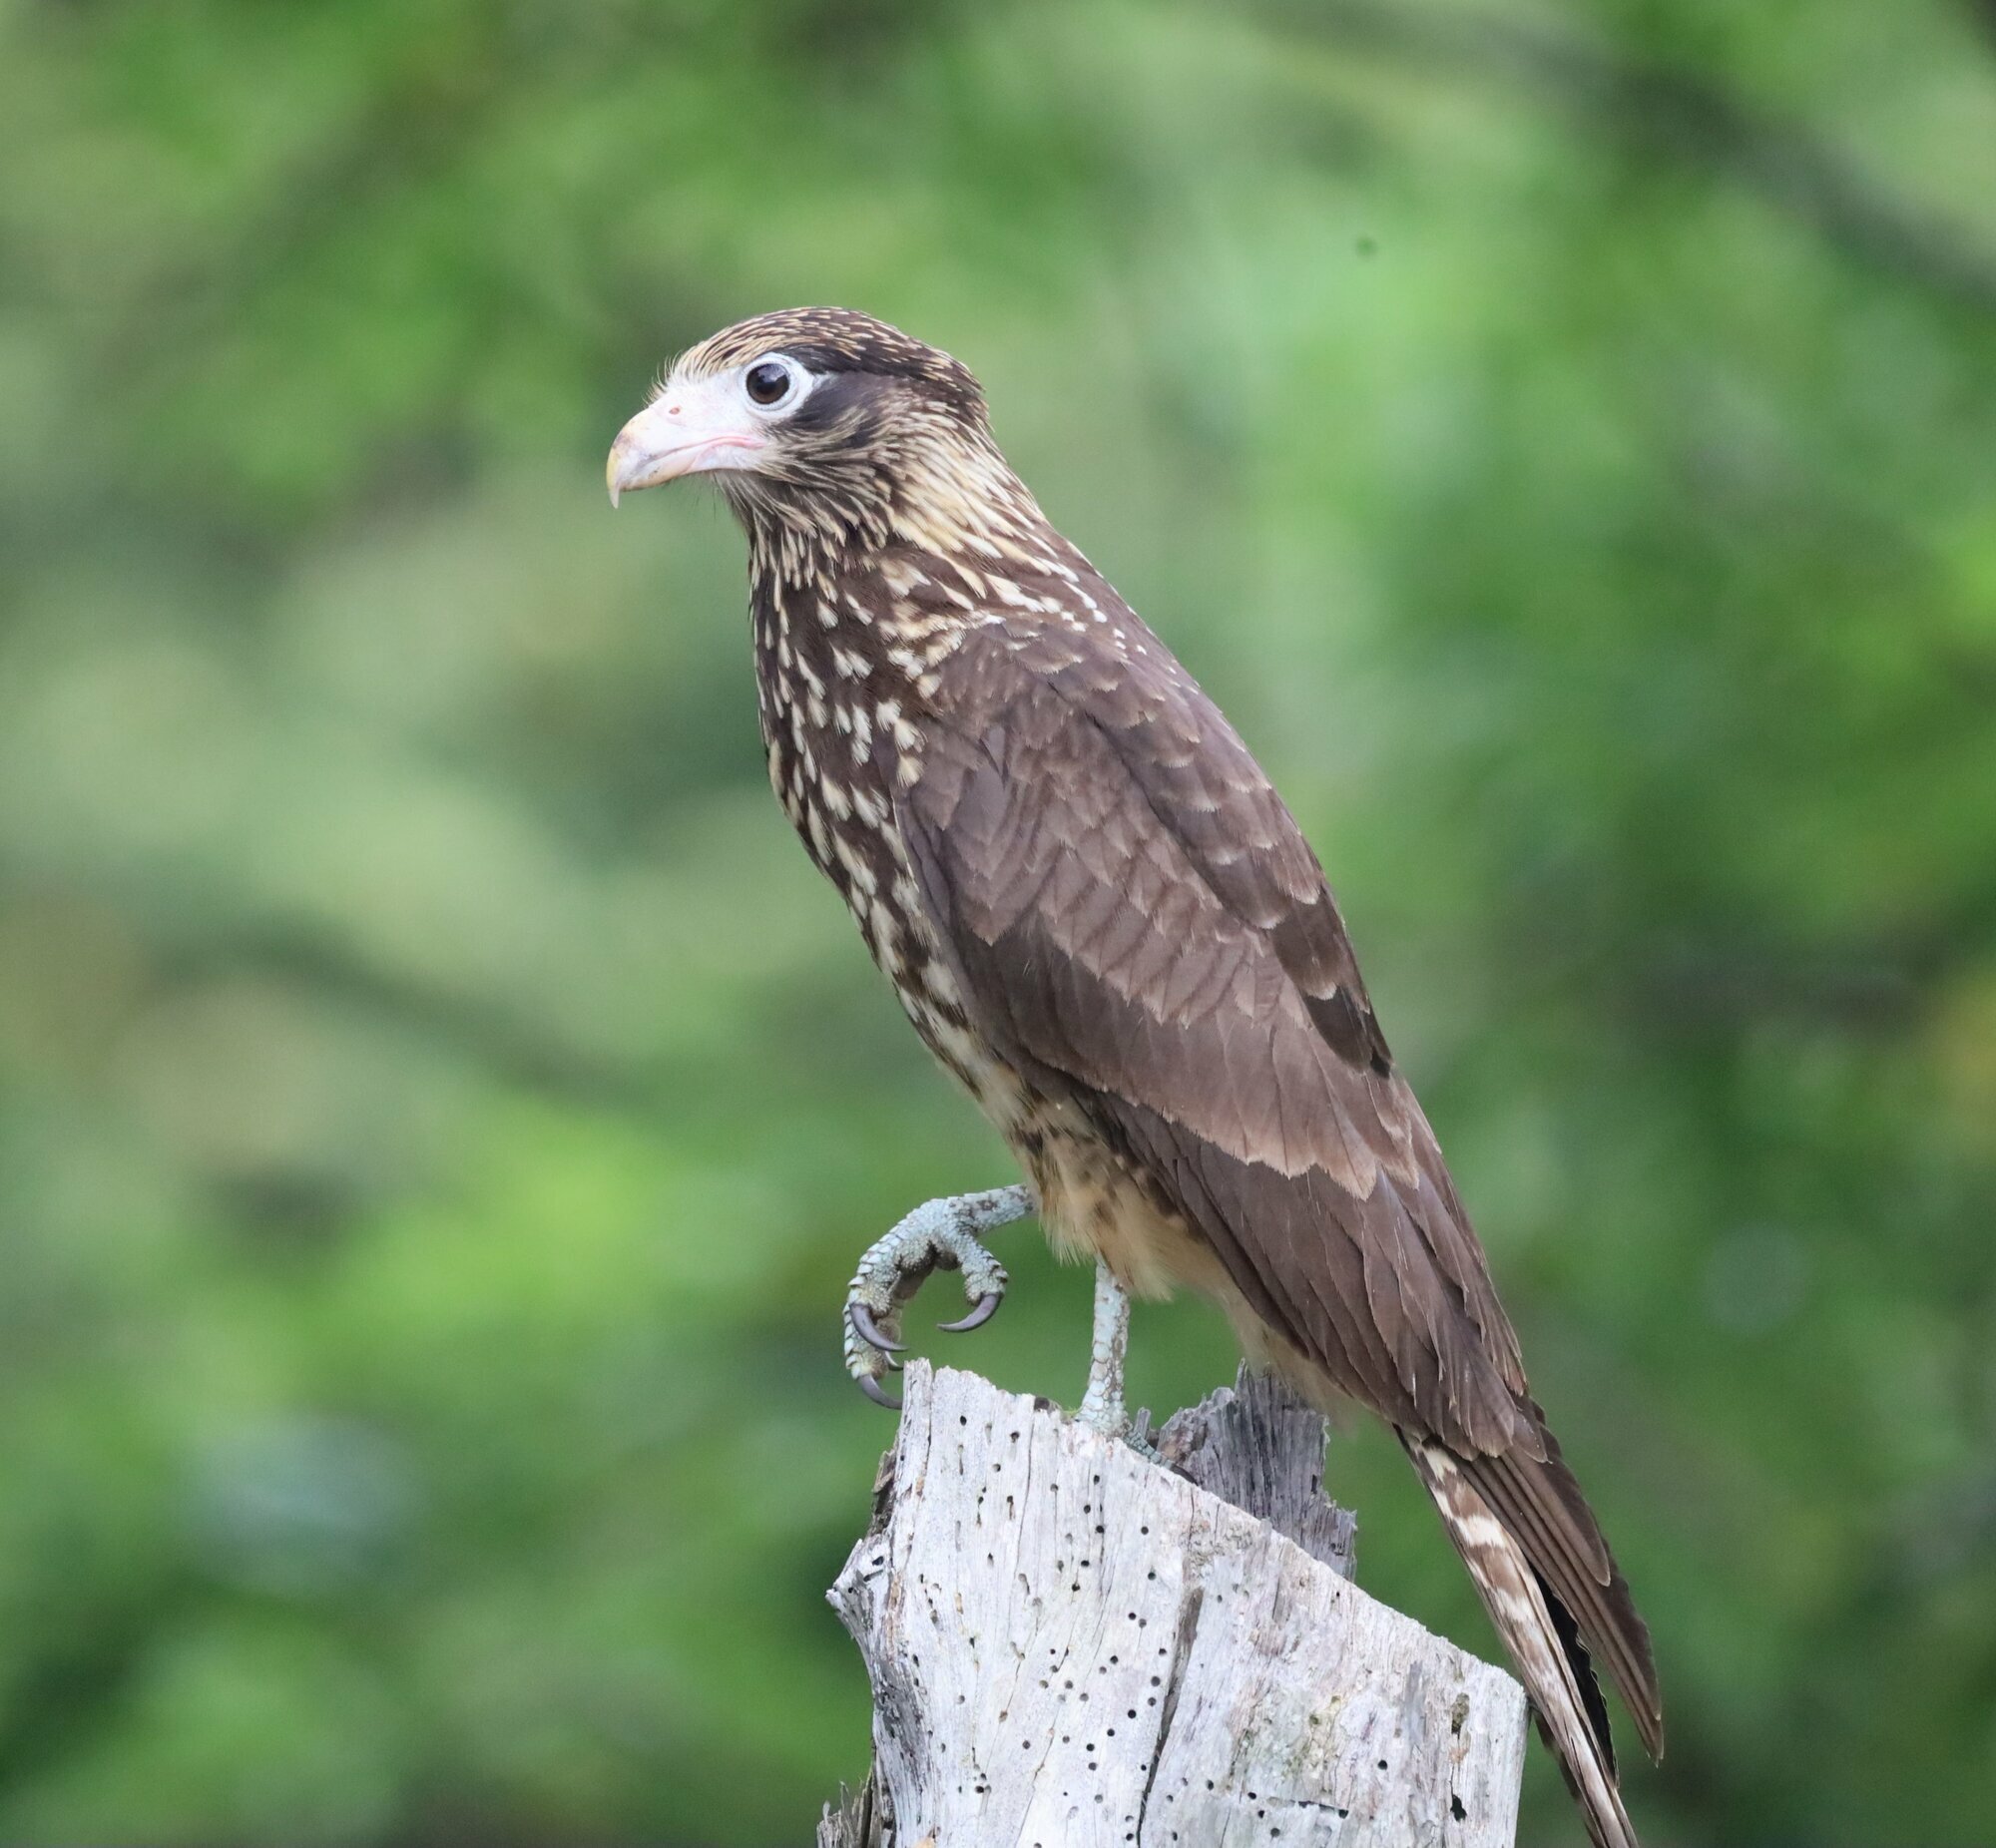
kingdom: Animalia
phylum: Chordata
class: Aves
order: Falconiformes
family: Falconidae
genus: Daptrius
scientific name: Daptrius
